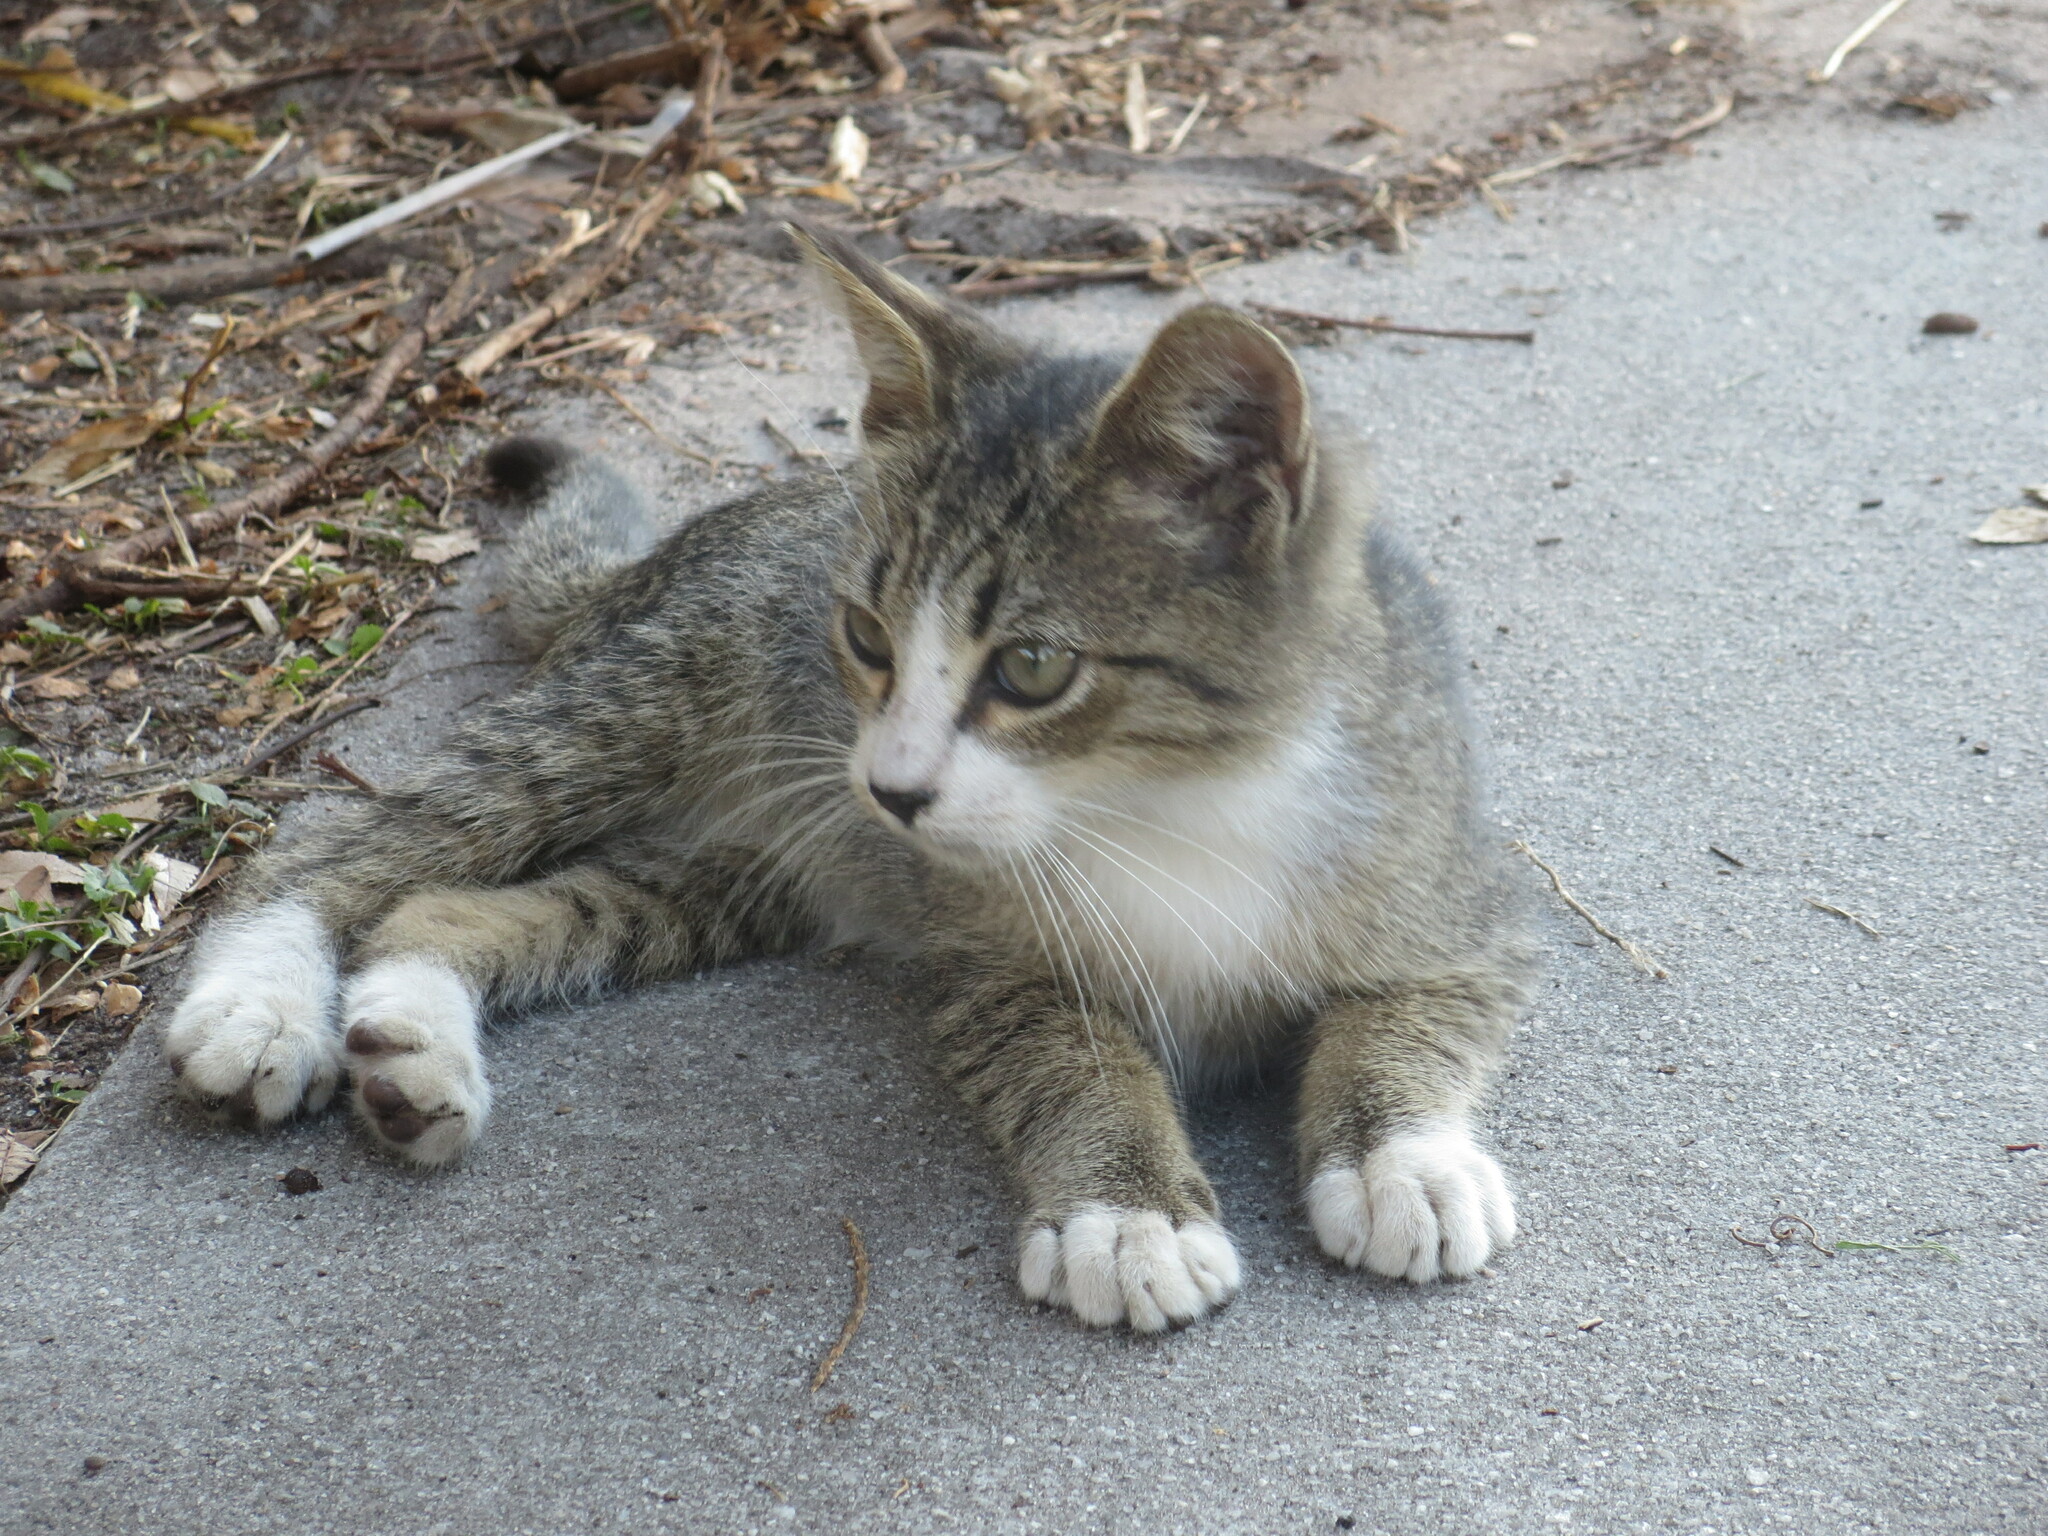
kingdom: Animalia
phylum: Chordata
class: Mammalia
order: Carnivora
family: Felidae
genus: Felis
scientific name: Felis catus
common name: Domestic cat
